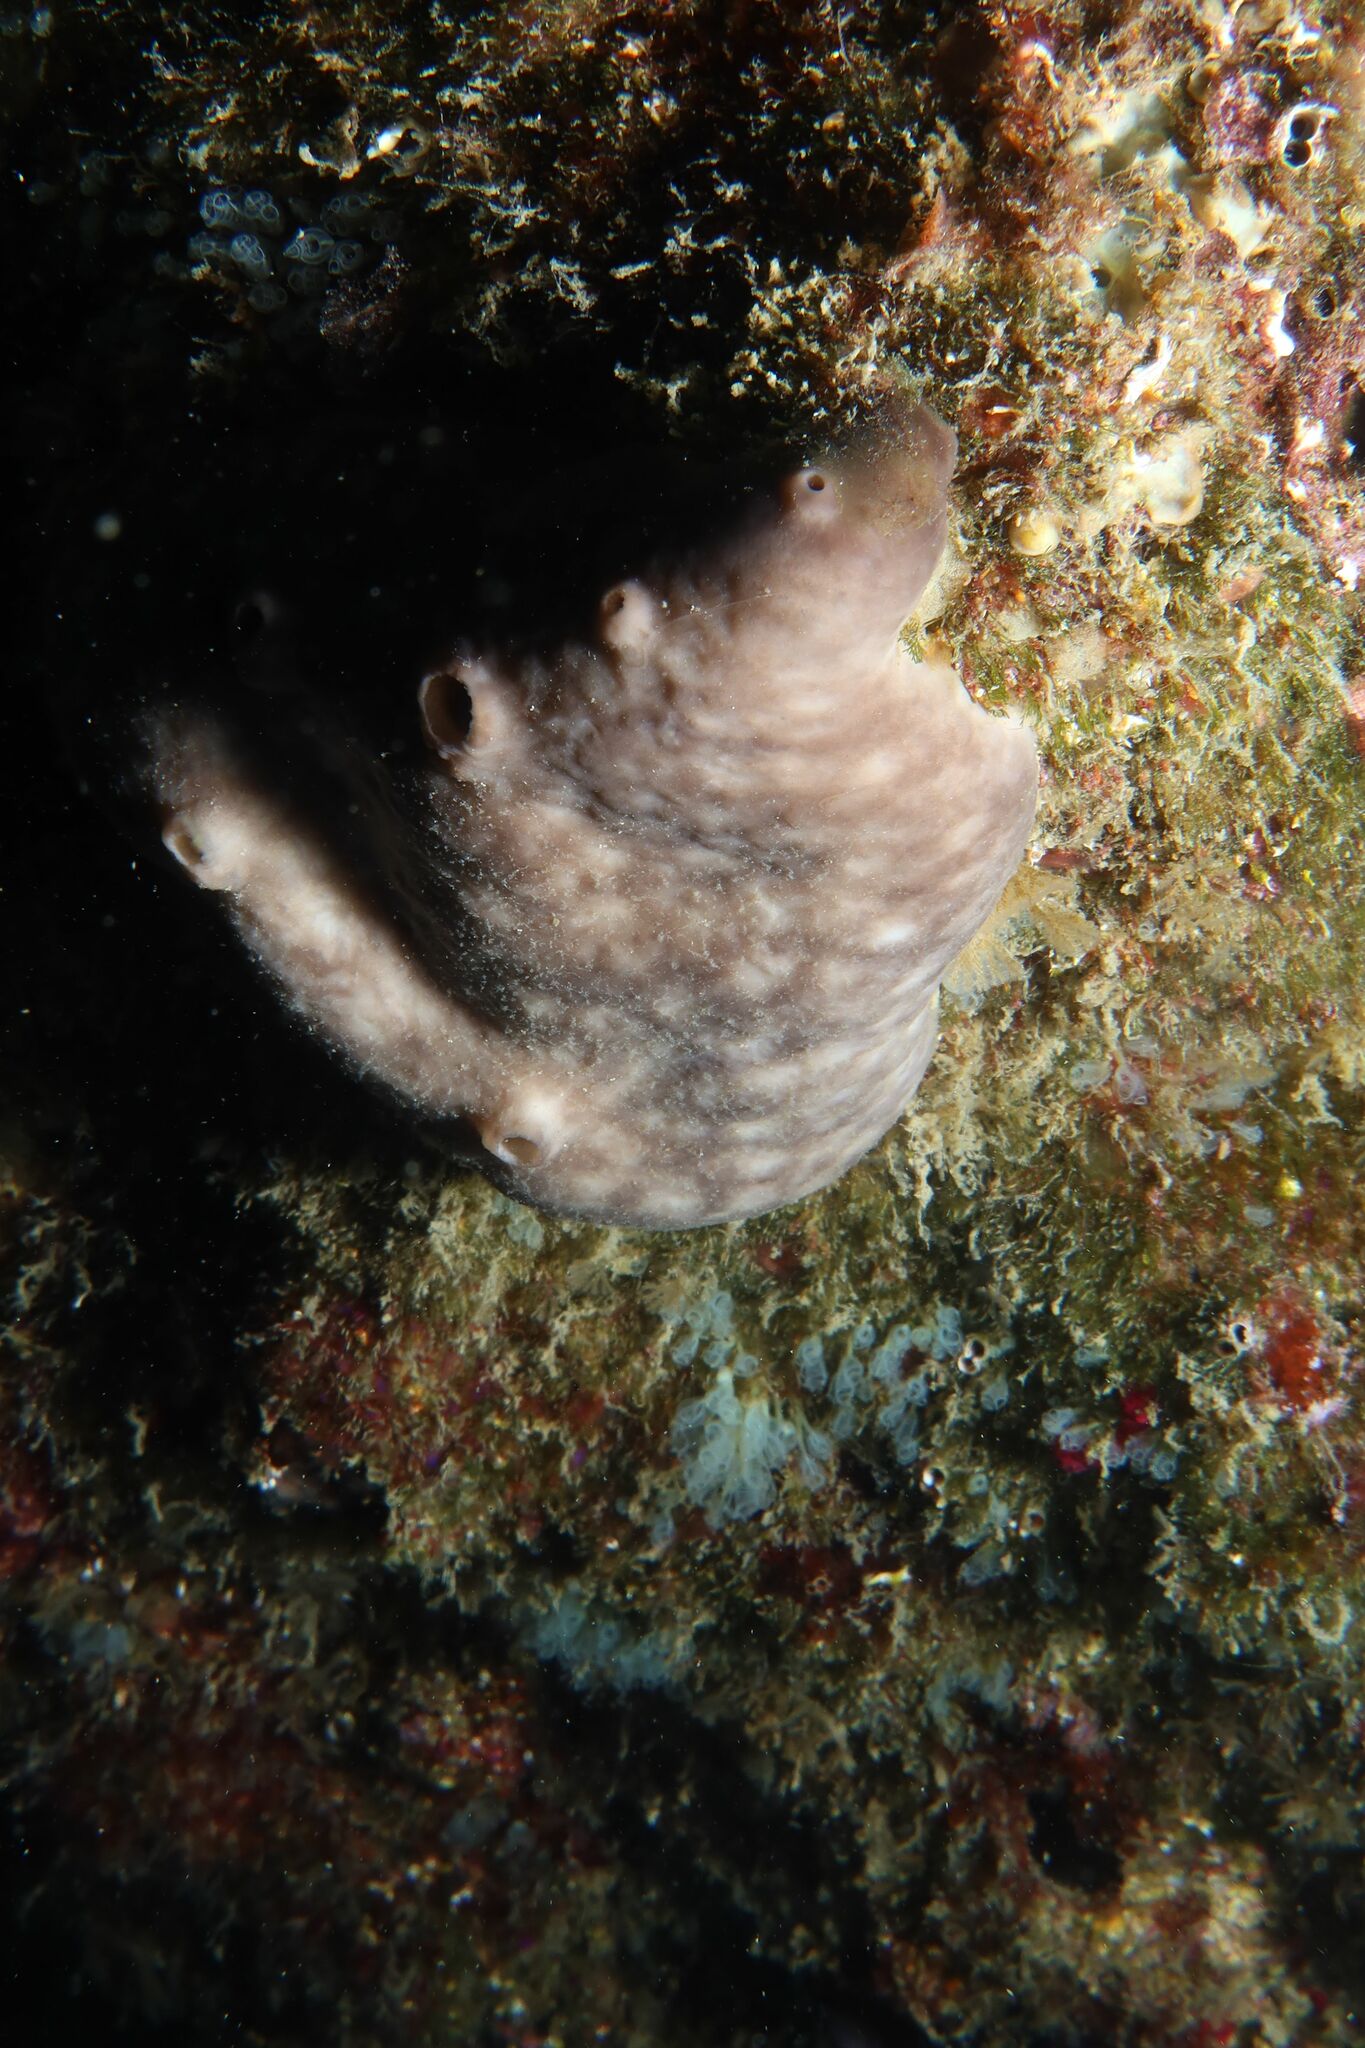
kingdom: Animalia
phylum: Porifera
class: Demospongiae
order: Chondrosiida
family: Chondrosiidae
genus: Chondrosia
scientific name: Chondrosia reniformis
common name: Chicken liver sponge
